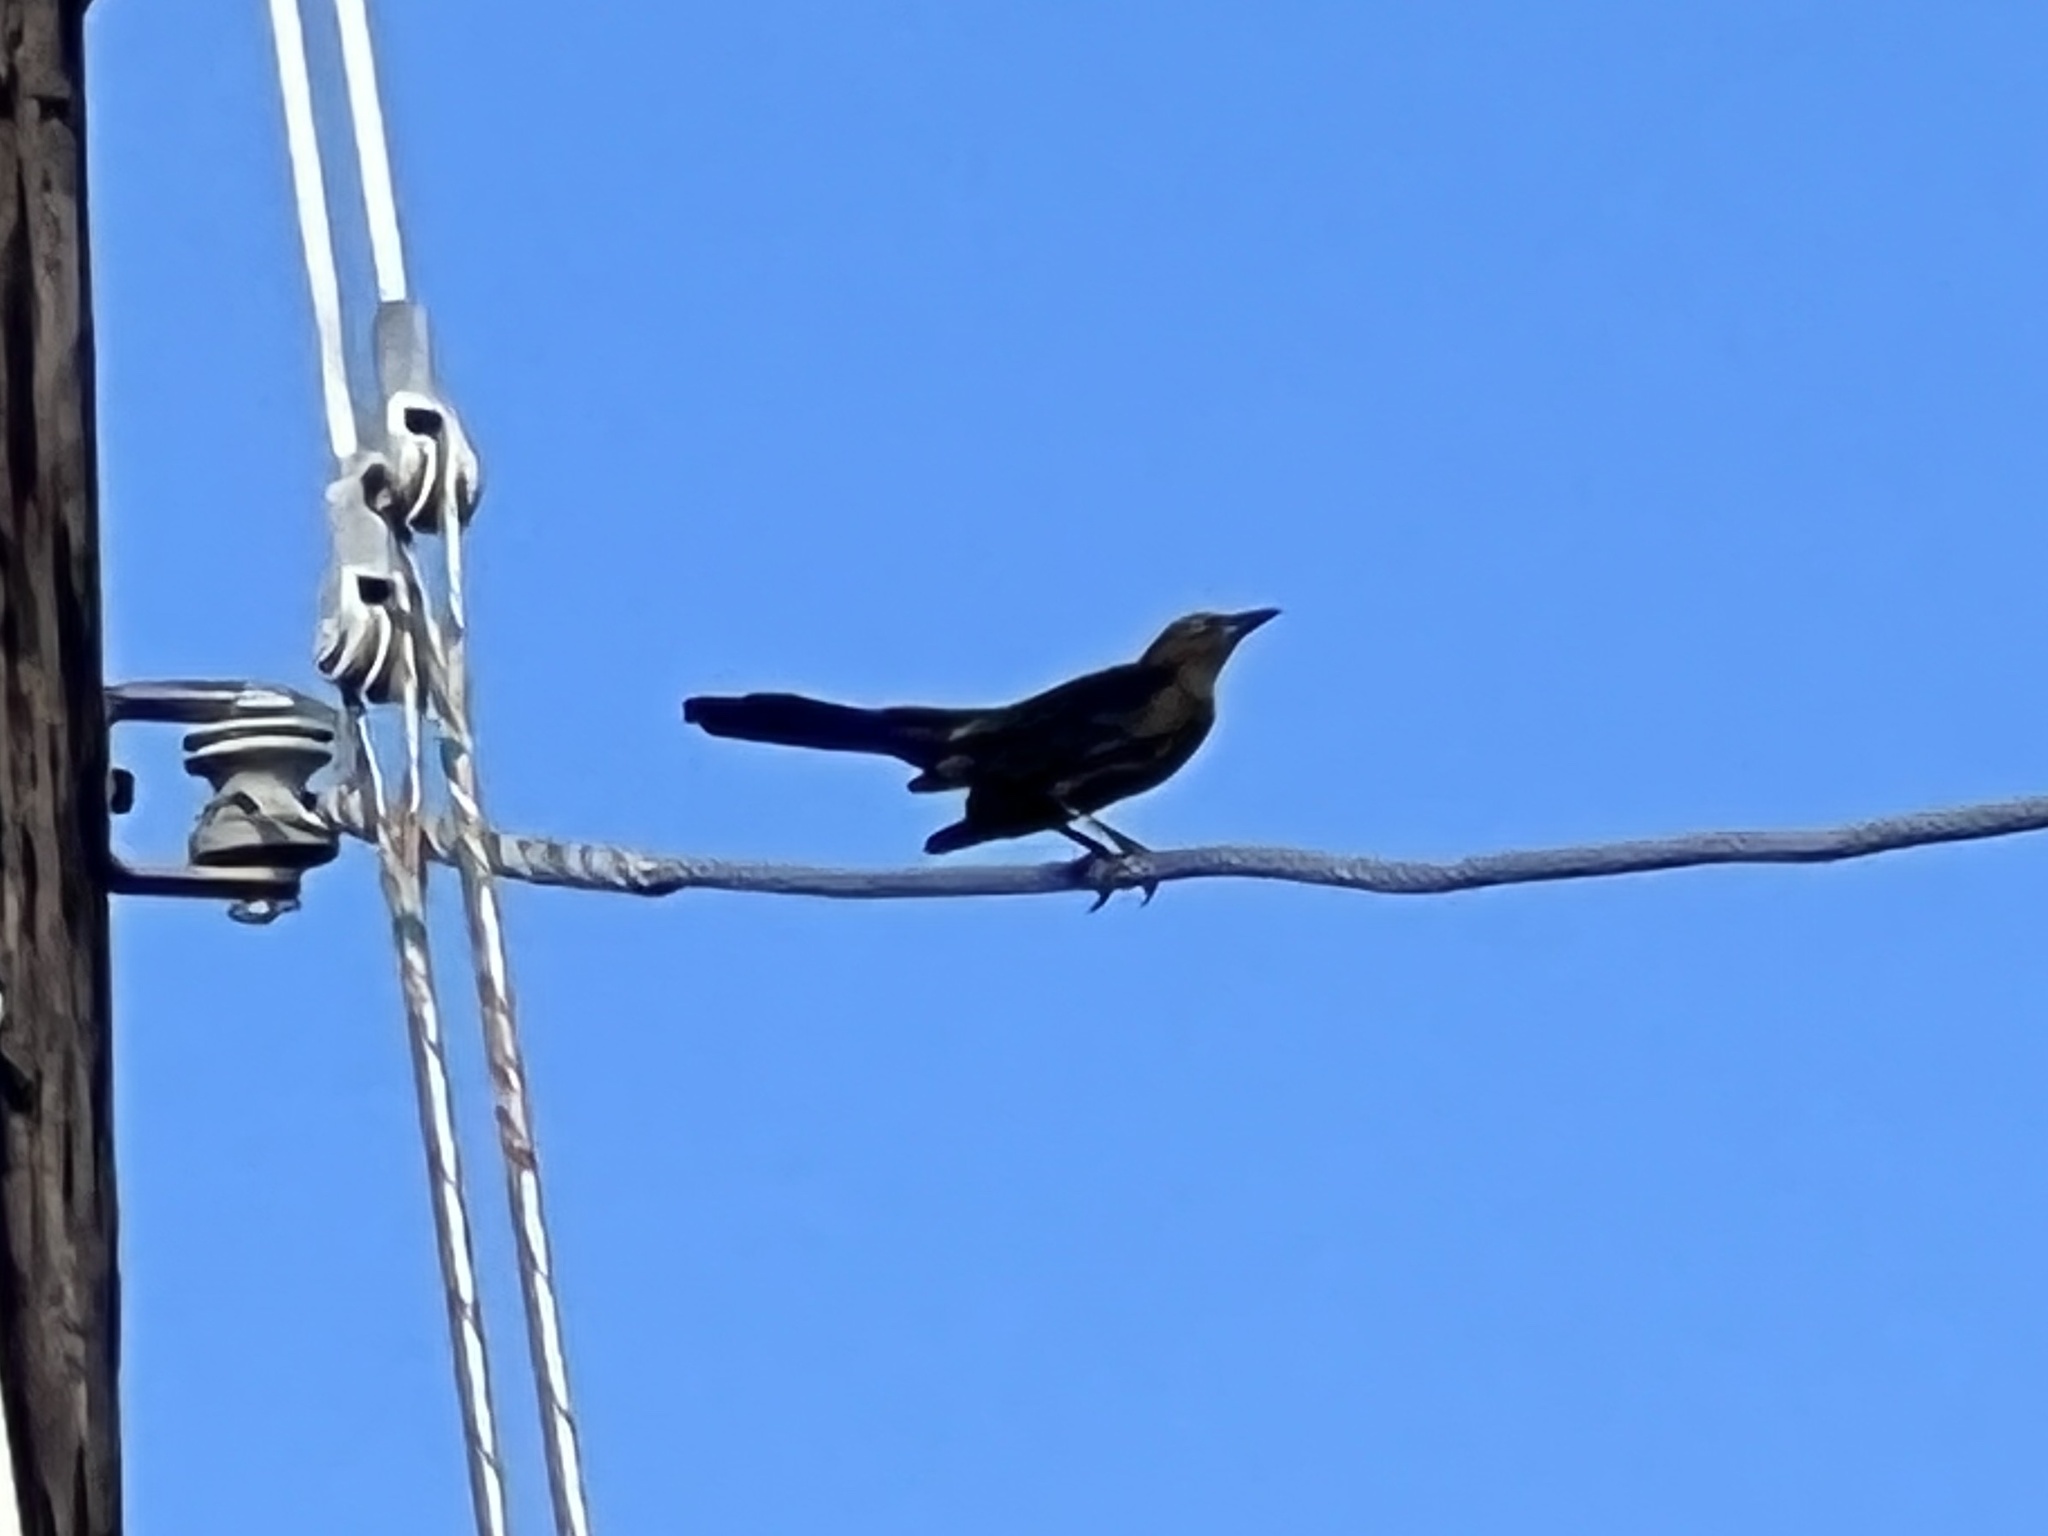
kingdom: Animalia
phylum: Chordata
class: Aves
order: Passeriformes
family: Icteridae
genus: Quiscalus
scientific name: Quiscalus mexicanus
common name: Great-tailed grackle
